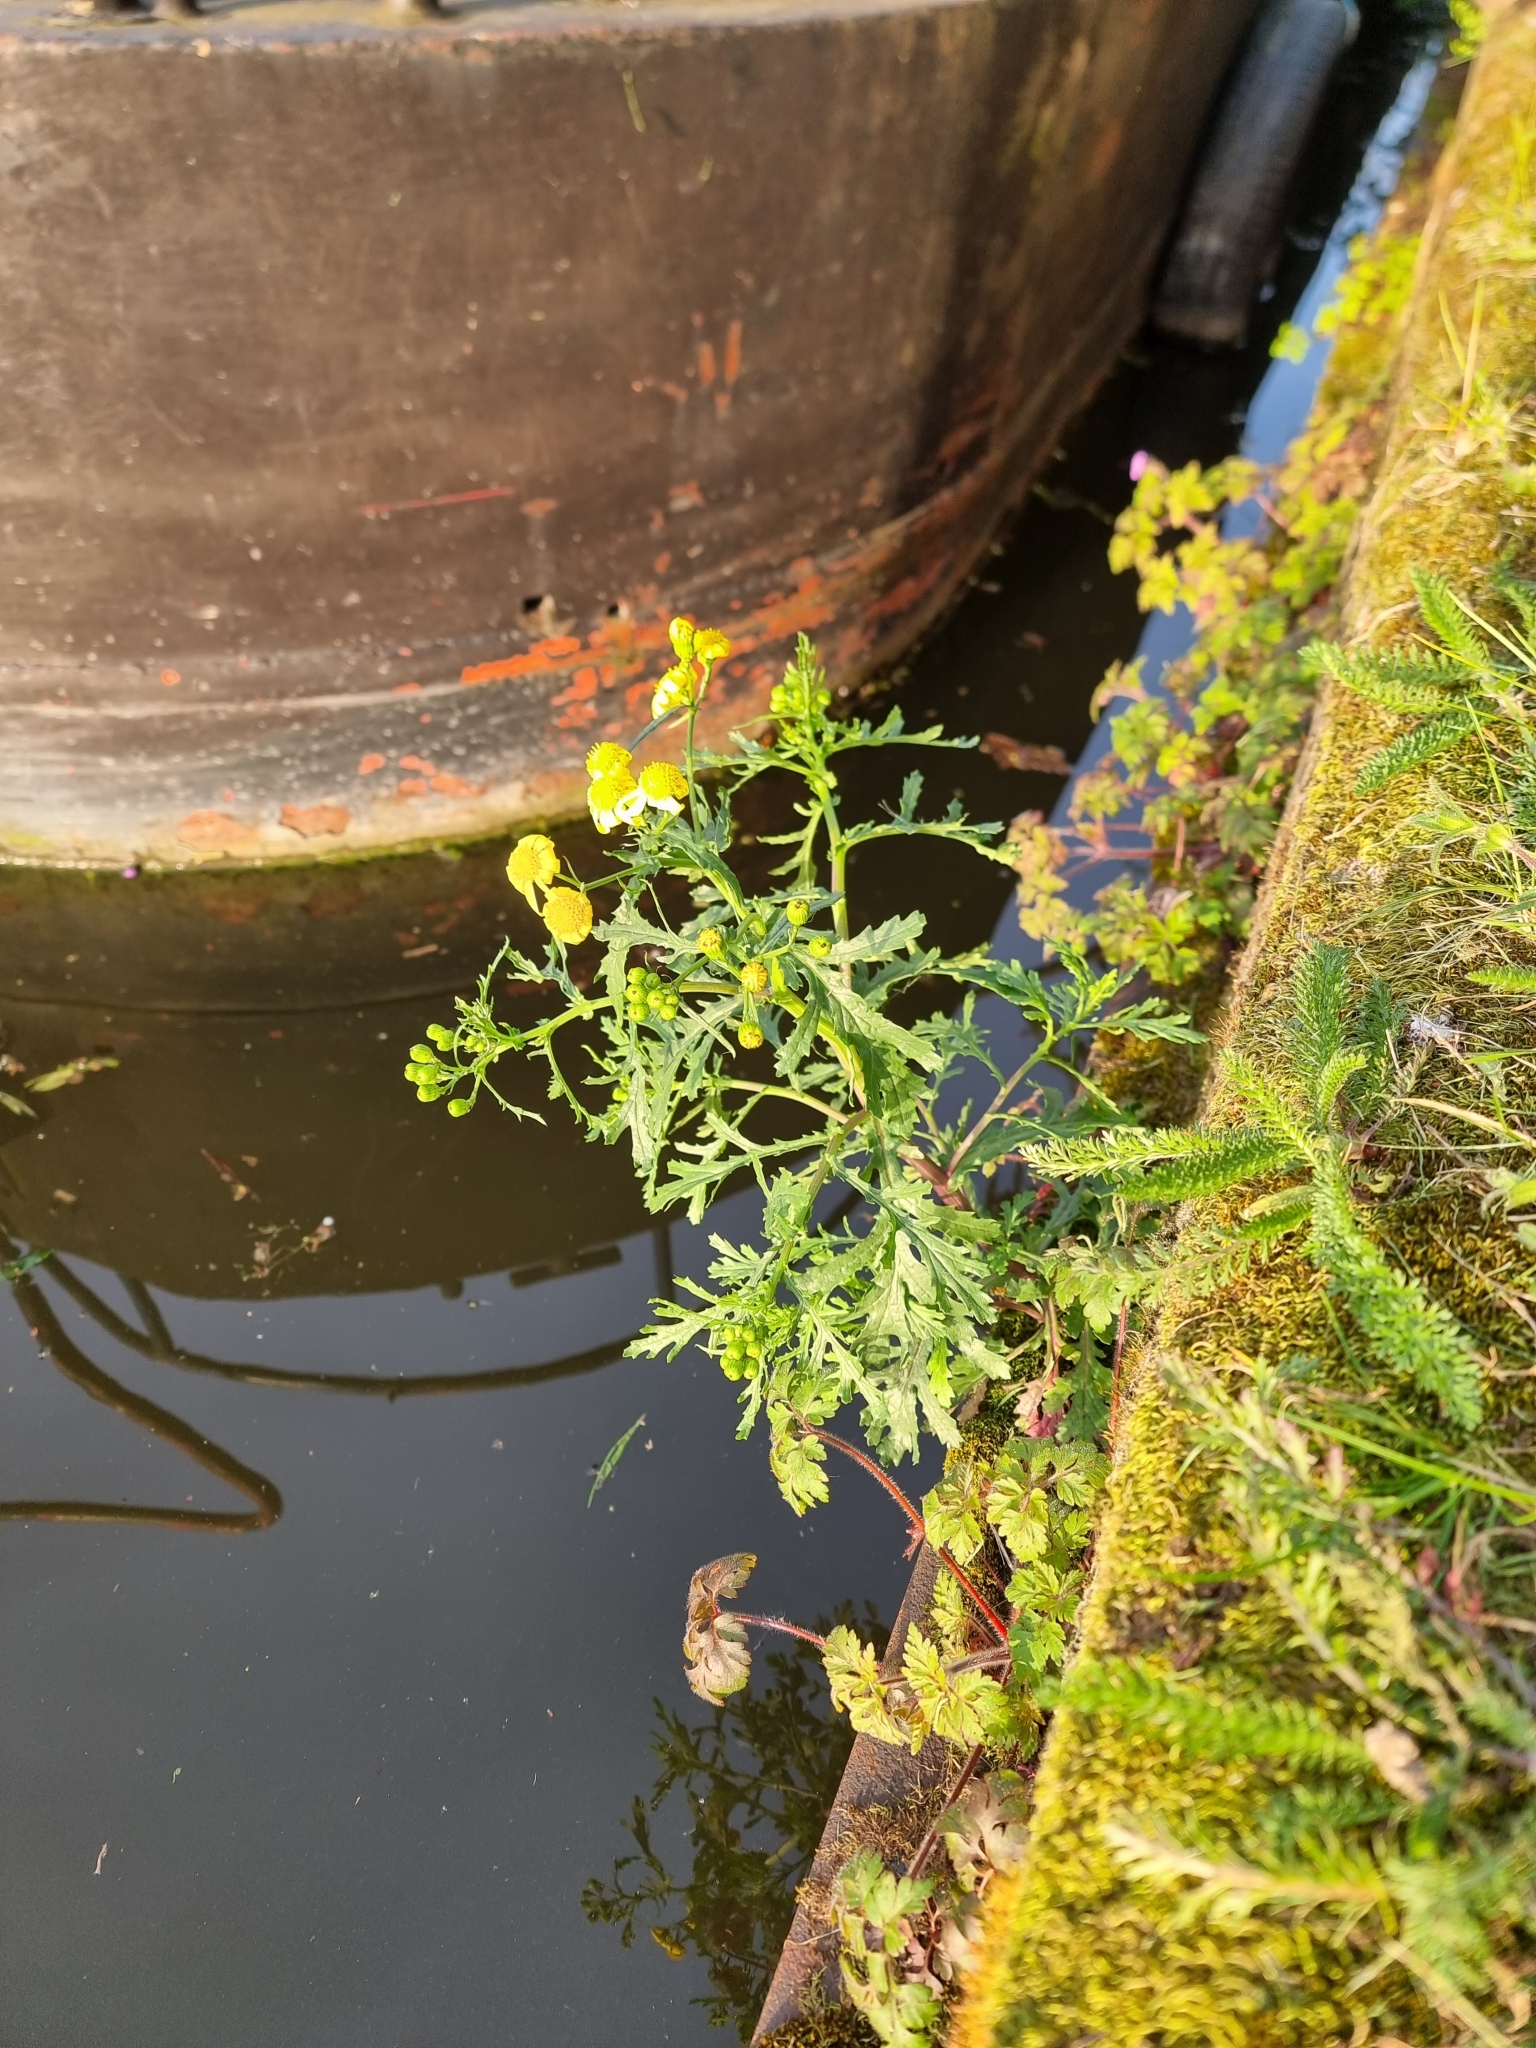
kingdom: Plantae
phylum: Tracheophyta
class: Magnoliopsida
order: Asterales
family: Asteraceae
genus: Senecio
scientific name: Senecio squalidus
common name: Oxford ragwort
